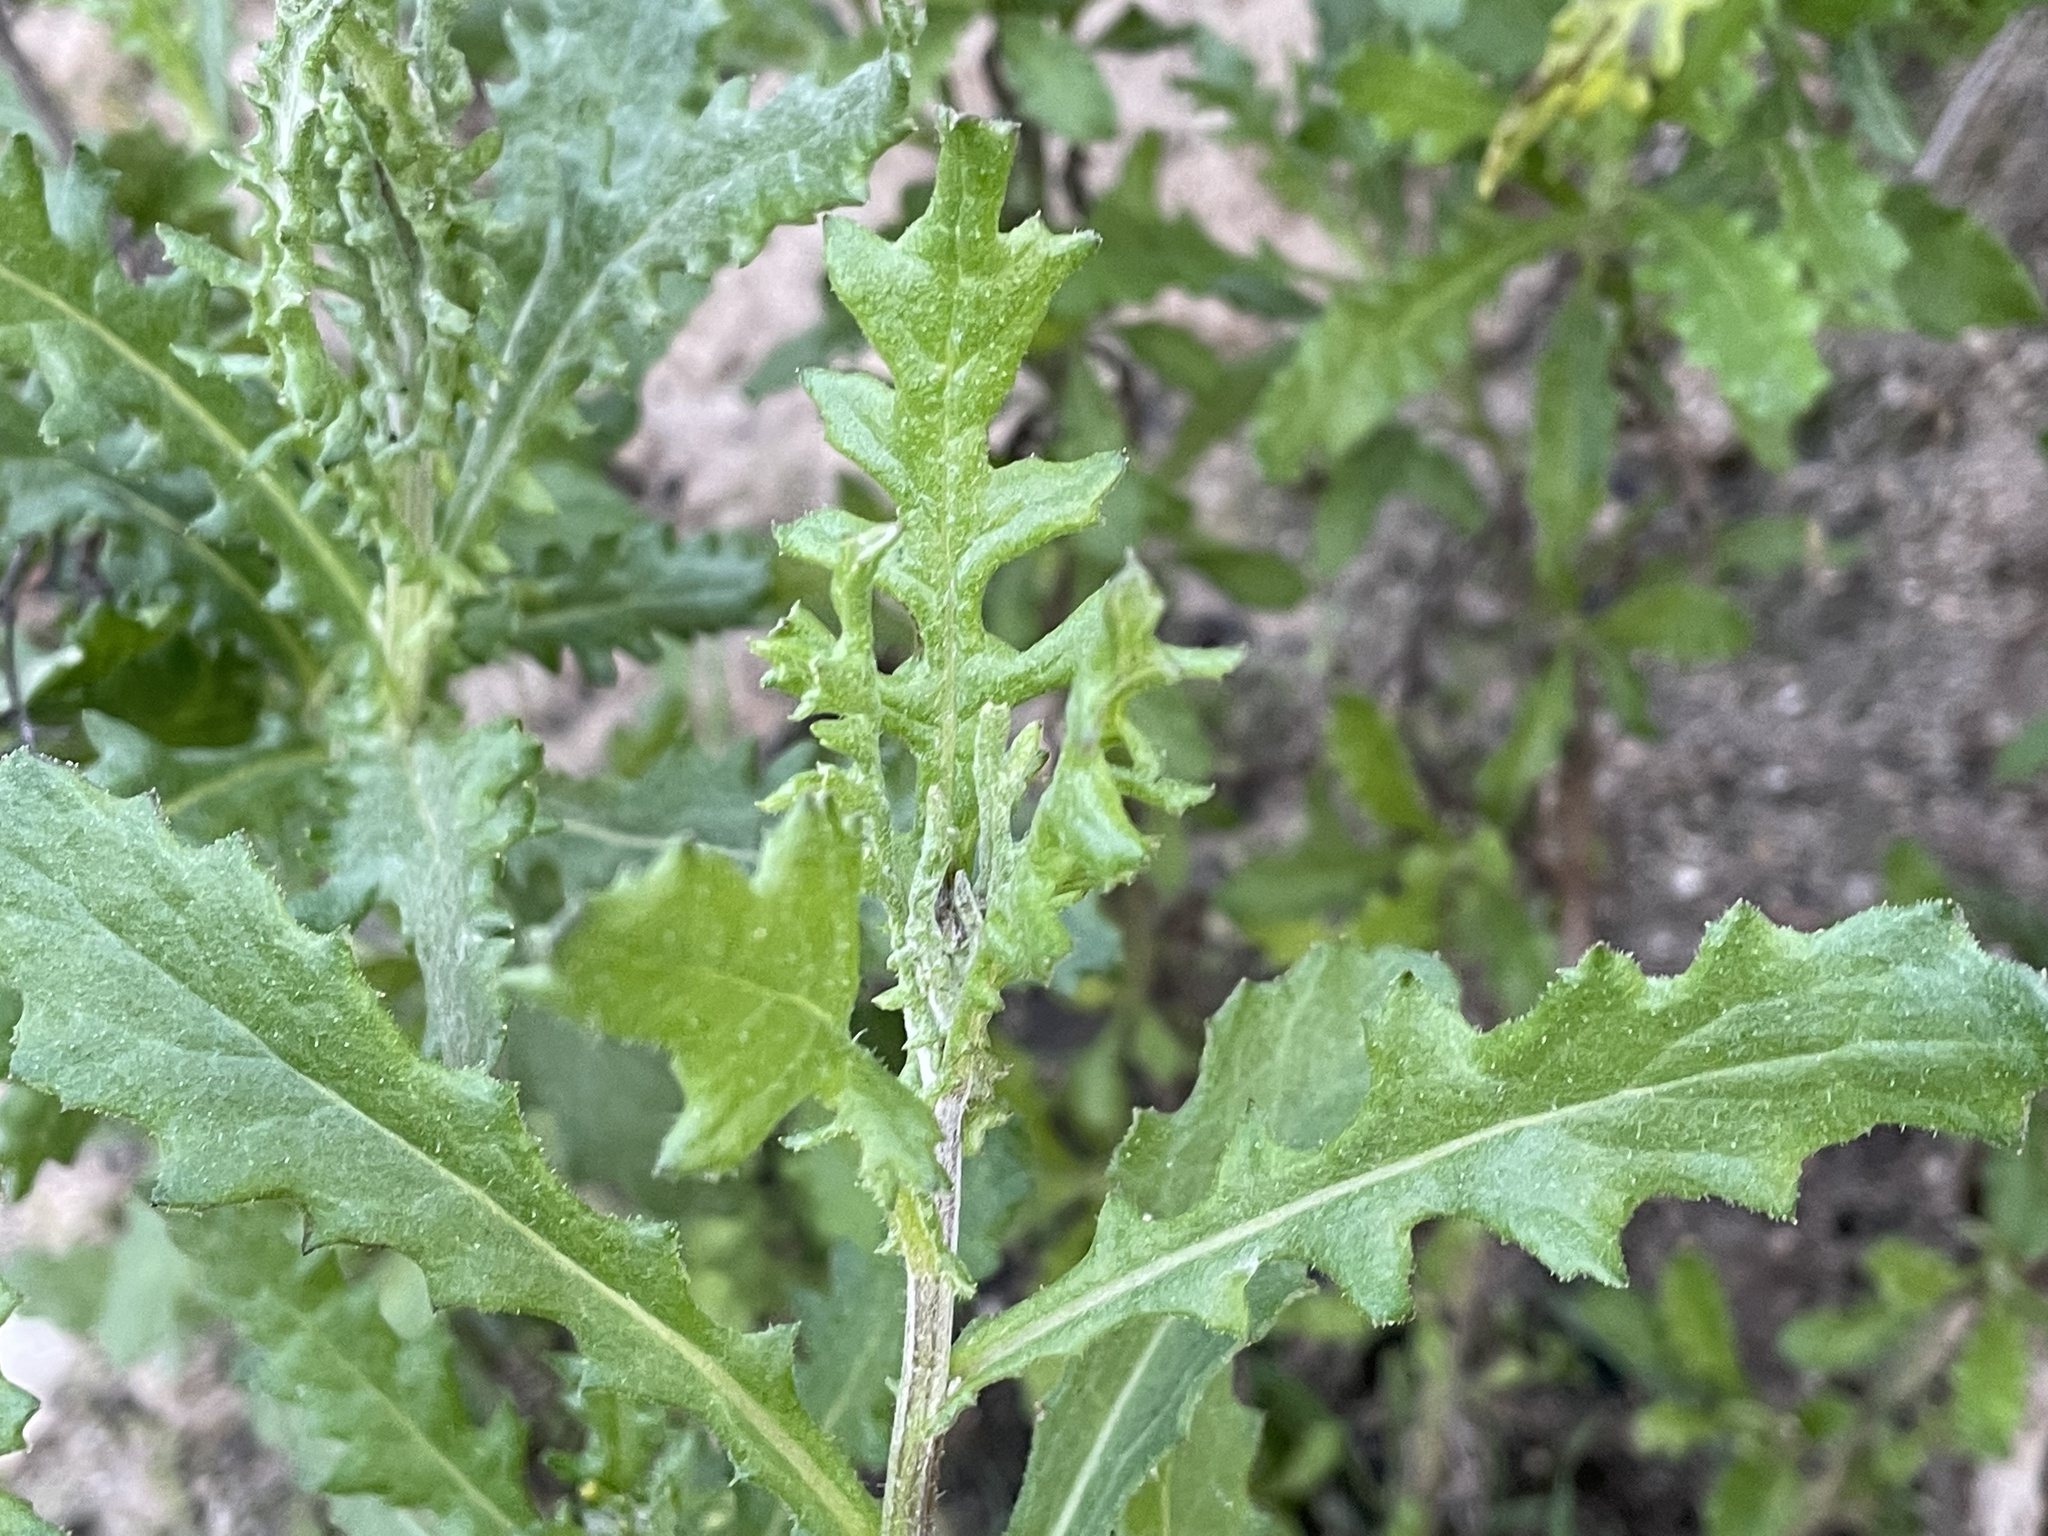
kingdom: Plantae
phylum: Tracheophyta
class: Magnoliopsida
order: Asterales
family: Asteraceae
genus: Senecio
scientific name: Senecio glomeratus
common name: Cutleaf burnweed
